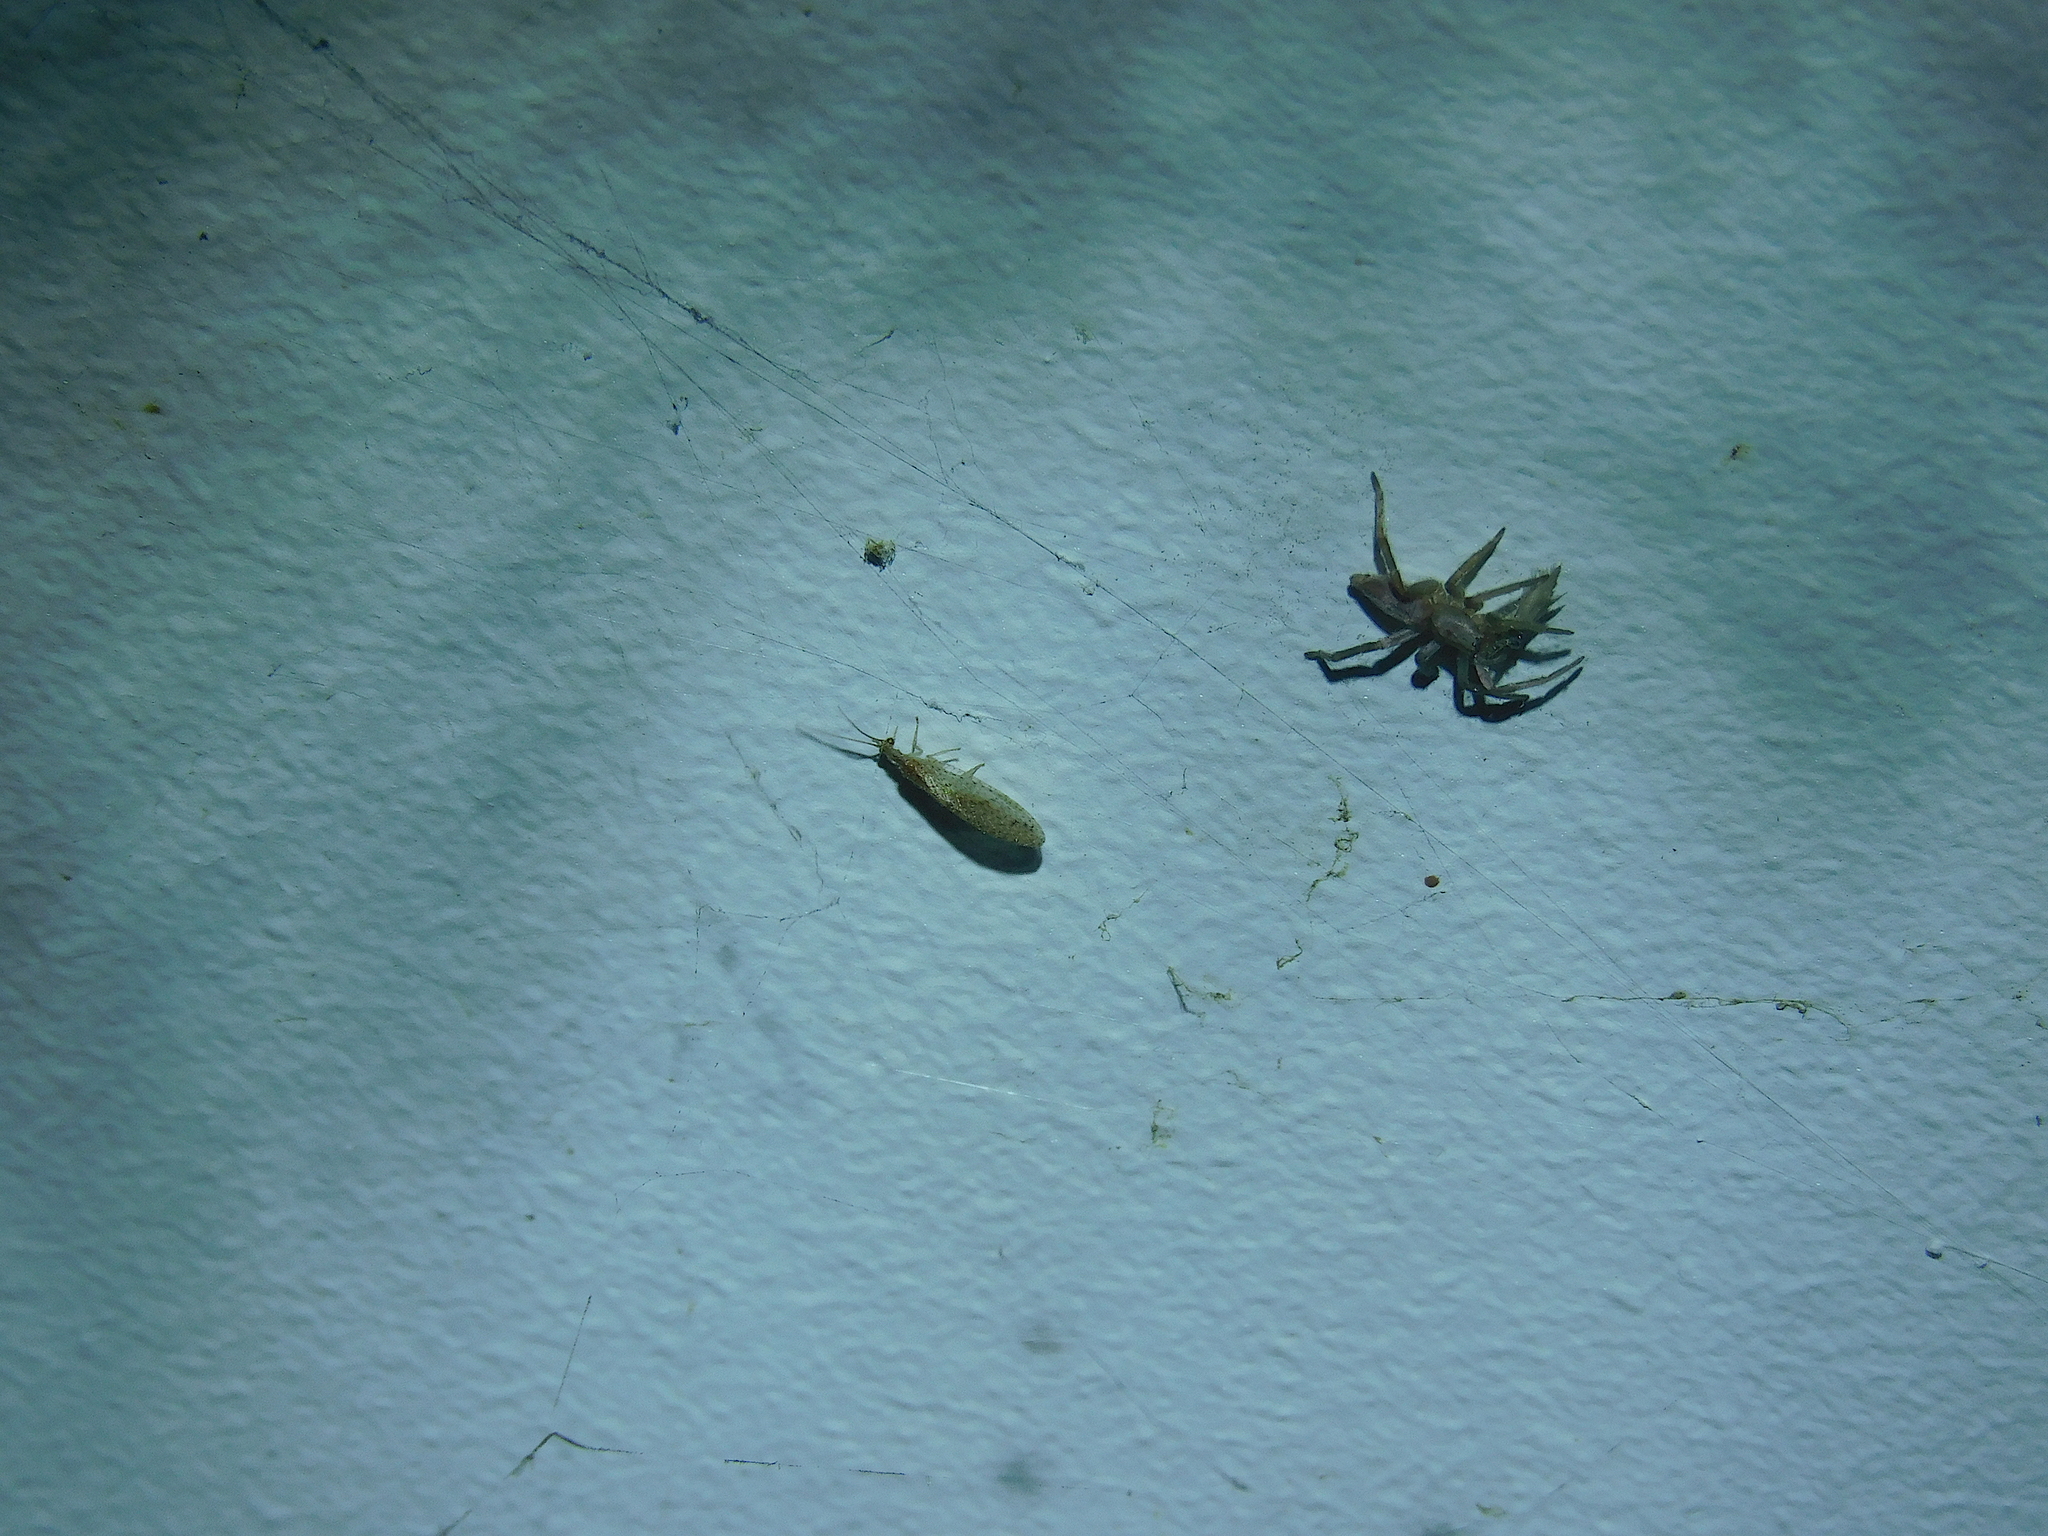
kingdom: Animalia
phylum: Arthropoda
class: Insecta
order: Neuroptera
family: Hemerobiidae
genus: Micromus
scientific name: Micromus tasmaniae
